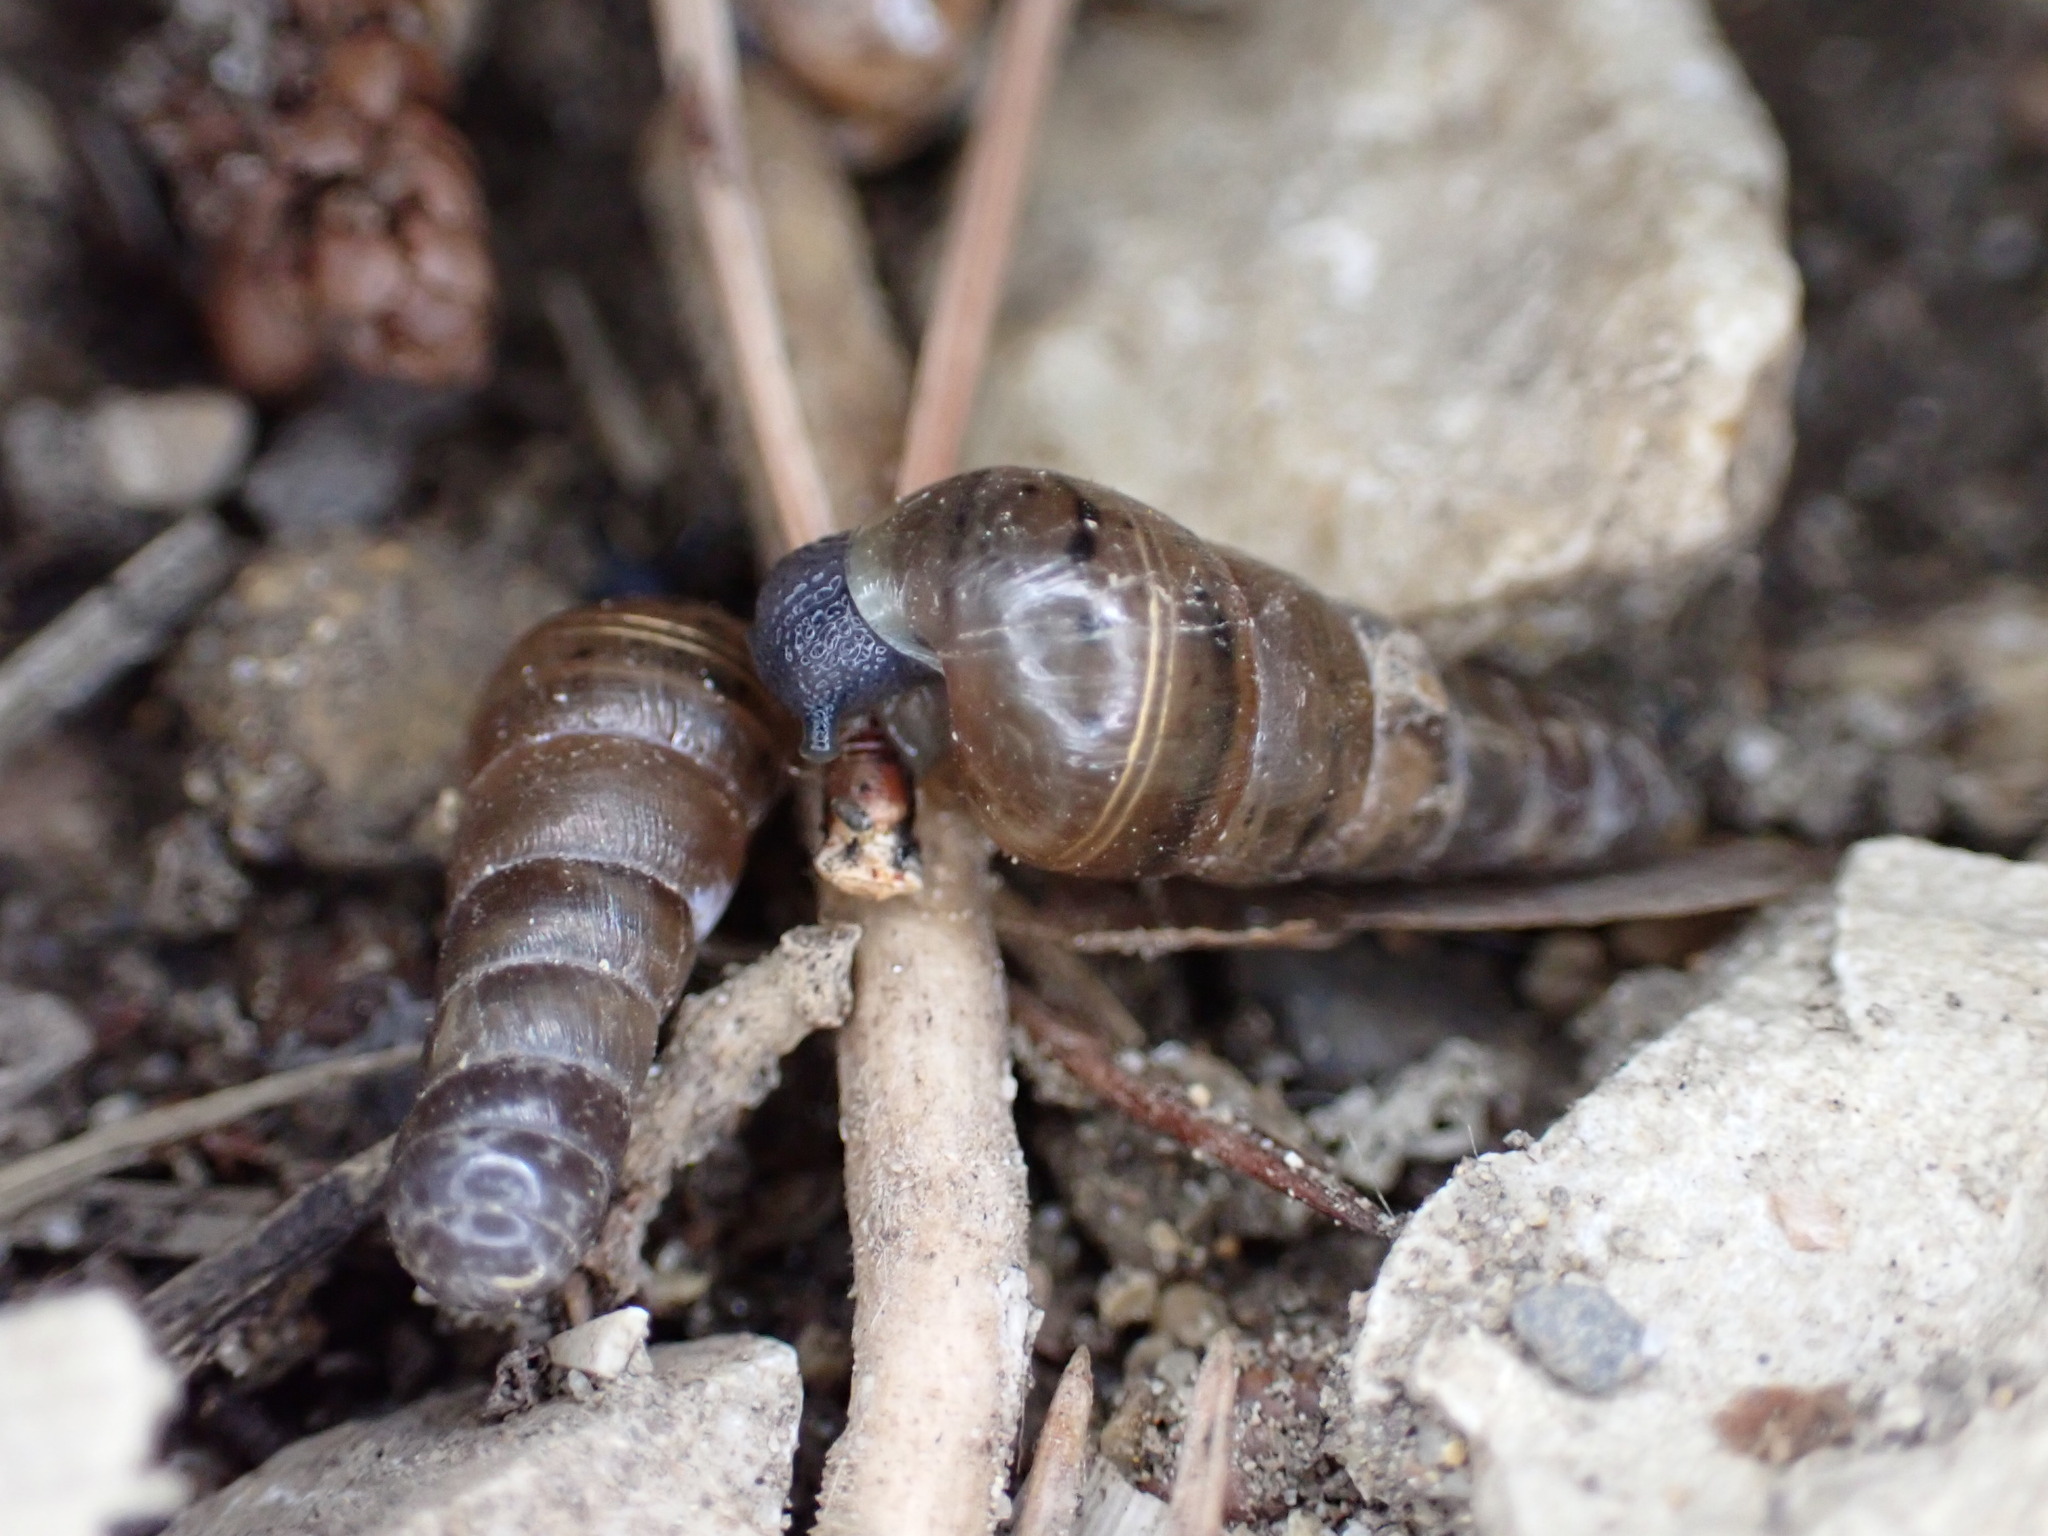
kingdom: Animalia
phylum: Mollusca
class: Gastropoda
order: Stylommatophora
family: Achatinidae
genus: Rumina
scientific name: Rumina decollata
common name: Decollate snail
